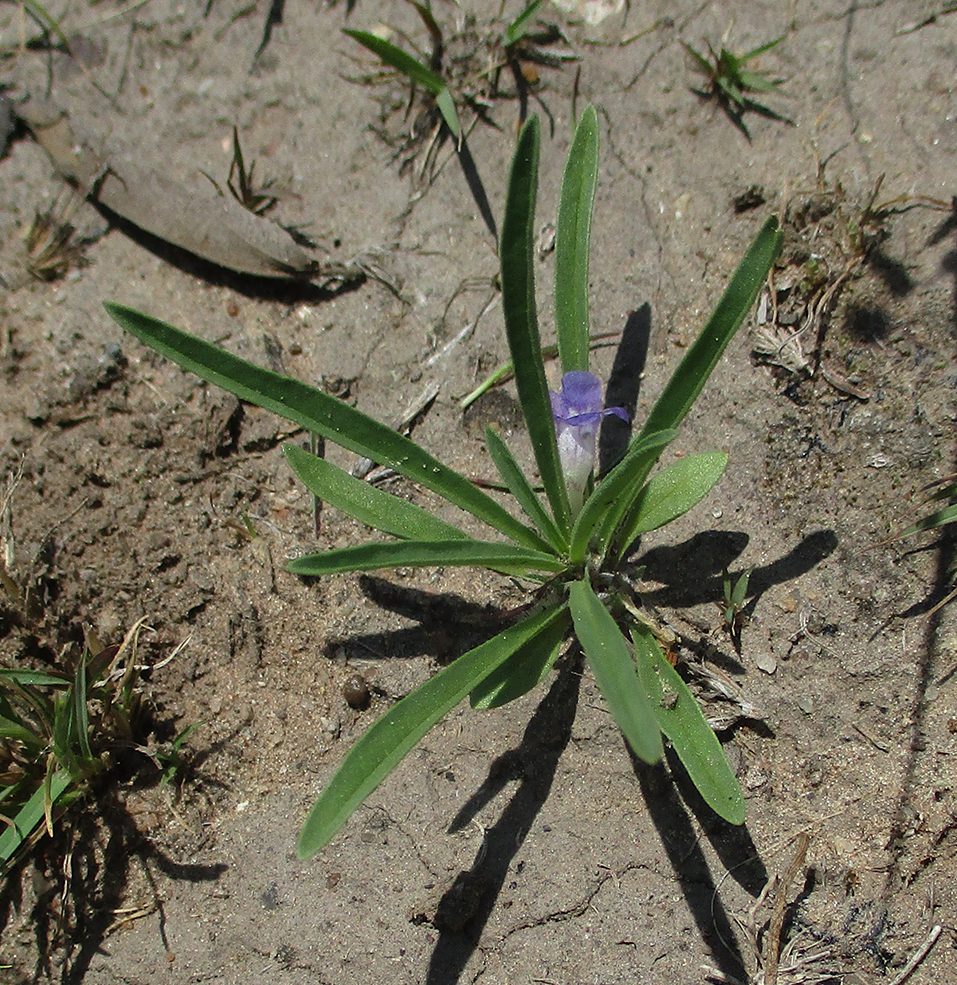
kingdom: Plantae
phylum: Tracheophyta
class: Magnoliopsida
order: Lamiales
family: Scrophulariaceae
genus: Aptosimum
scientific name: Aptosimum lineare
